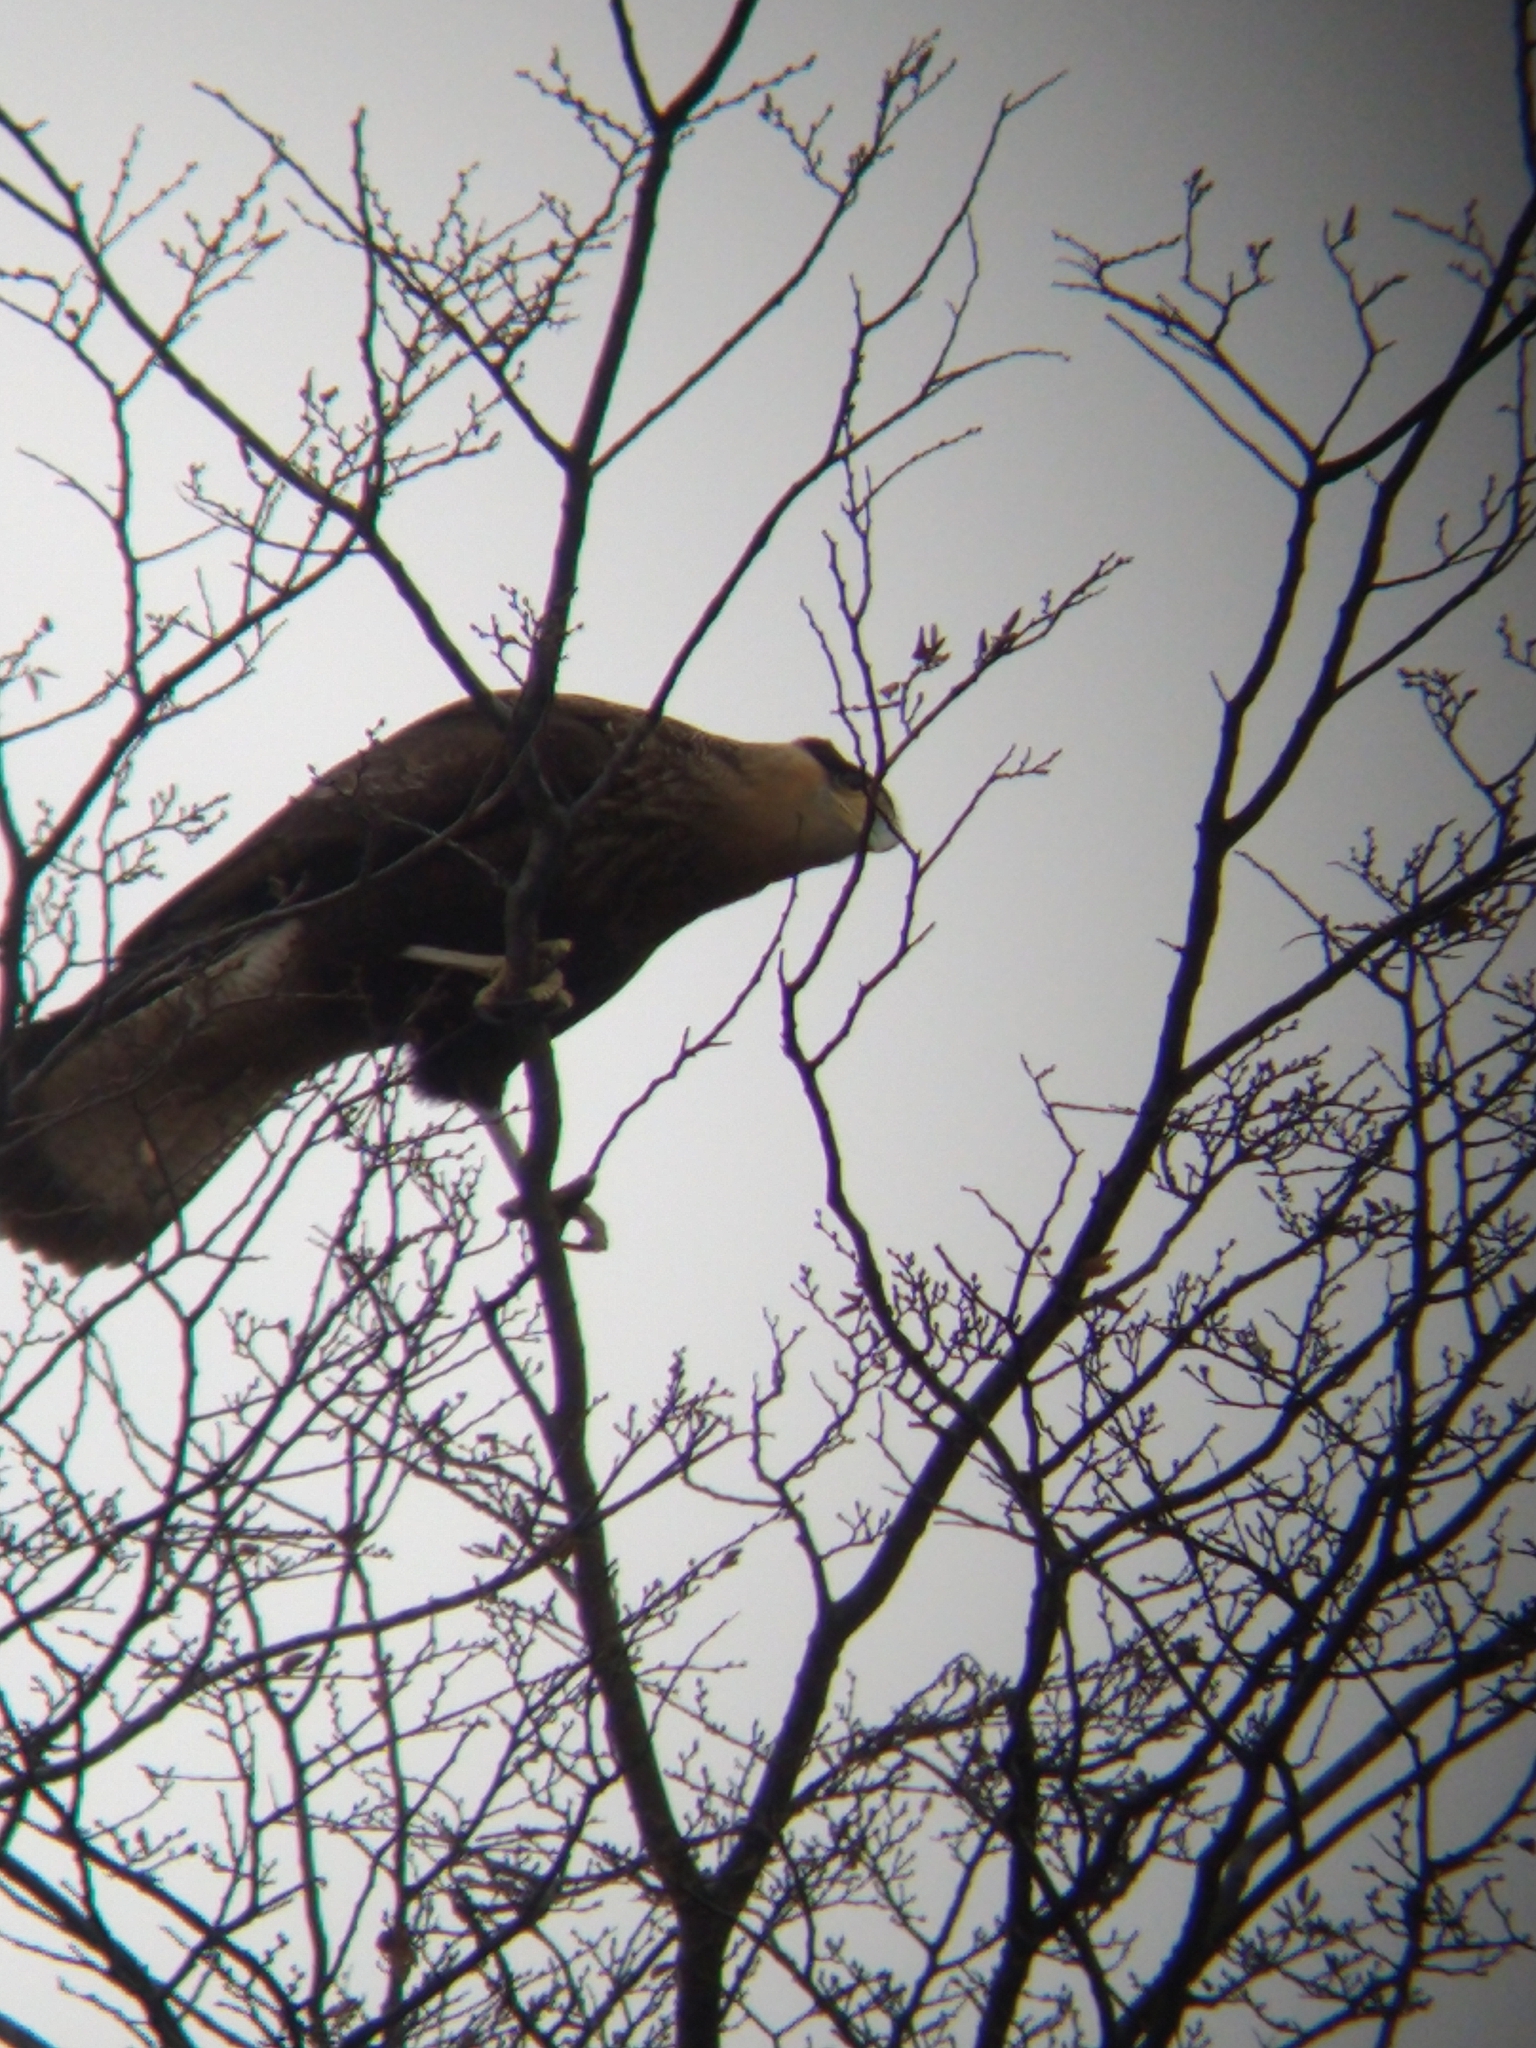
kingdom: Animalia
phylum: Chordata
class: Aves
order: Falconiformes
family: Falconidae
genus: Caracara
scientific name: Caracara plancus
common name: Southern caracara
